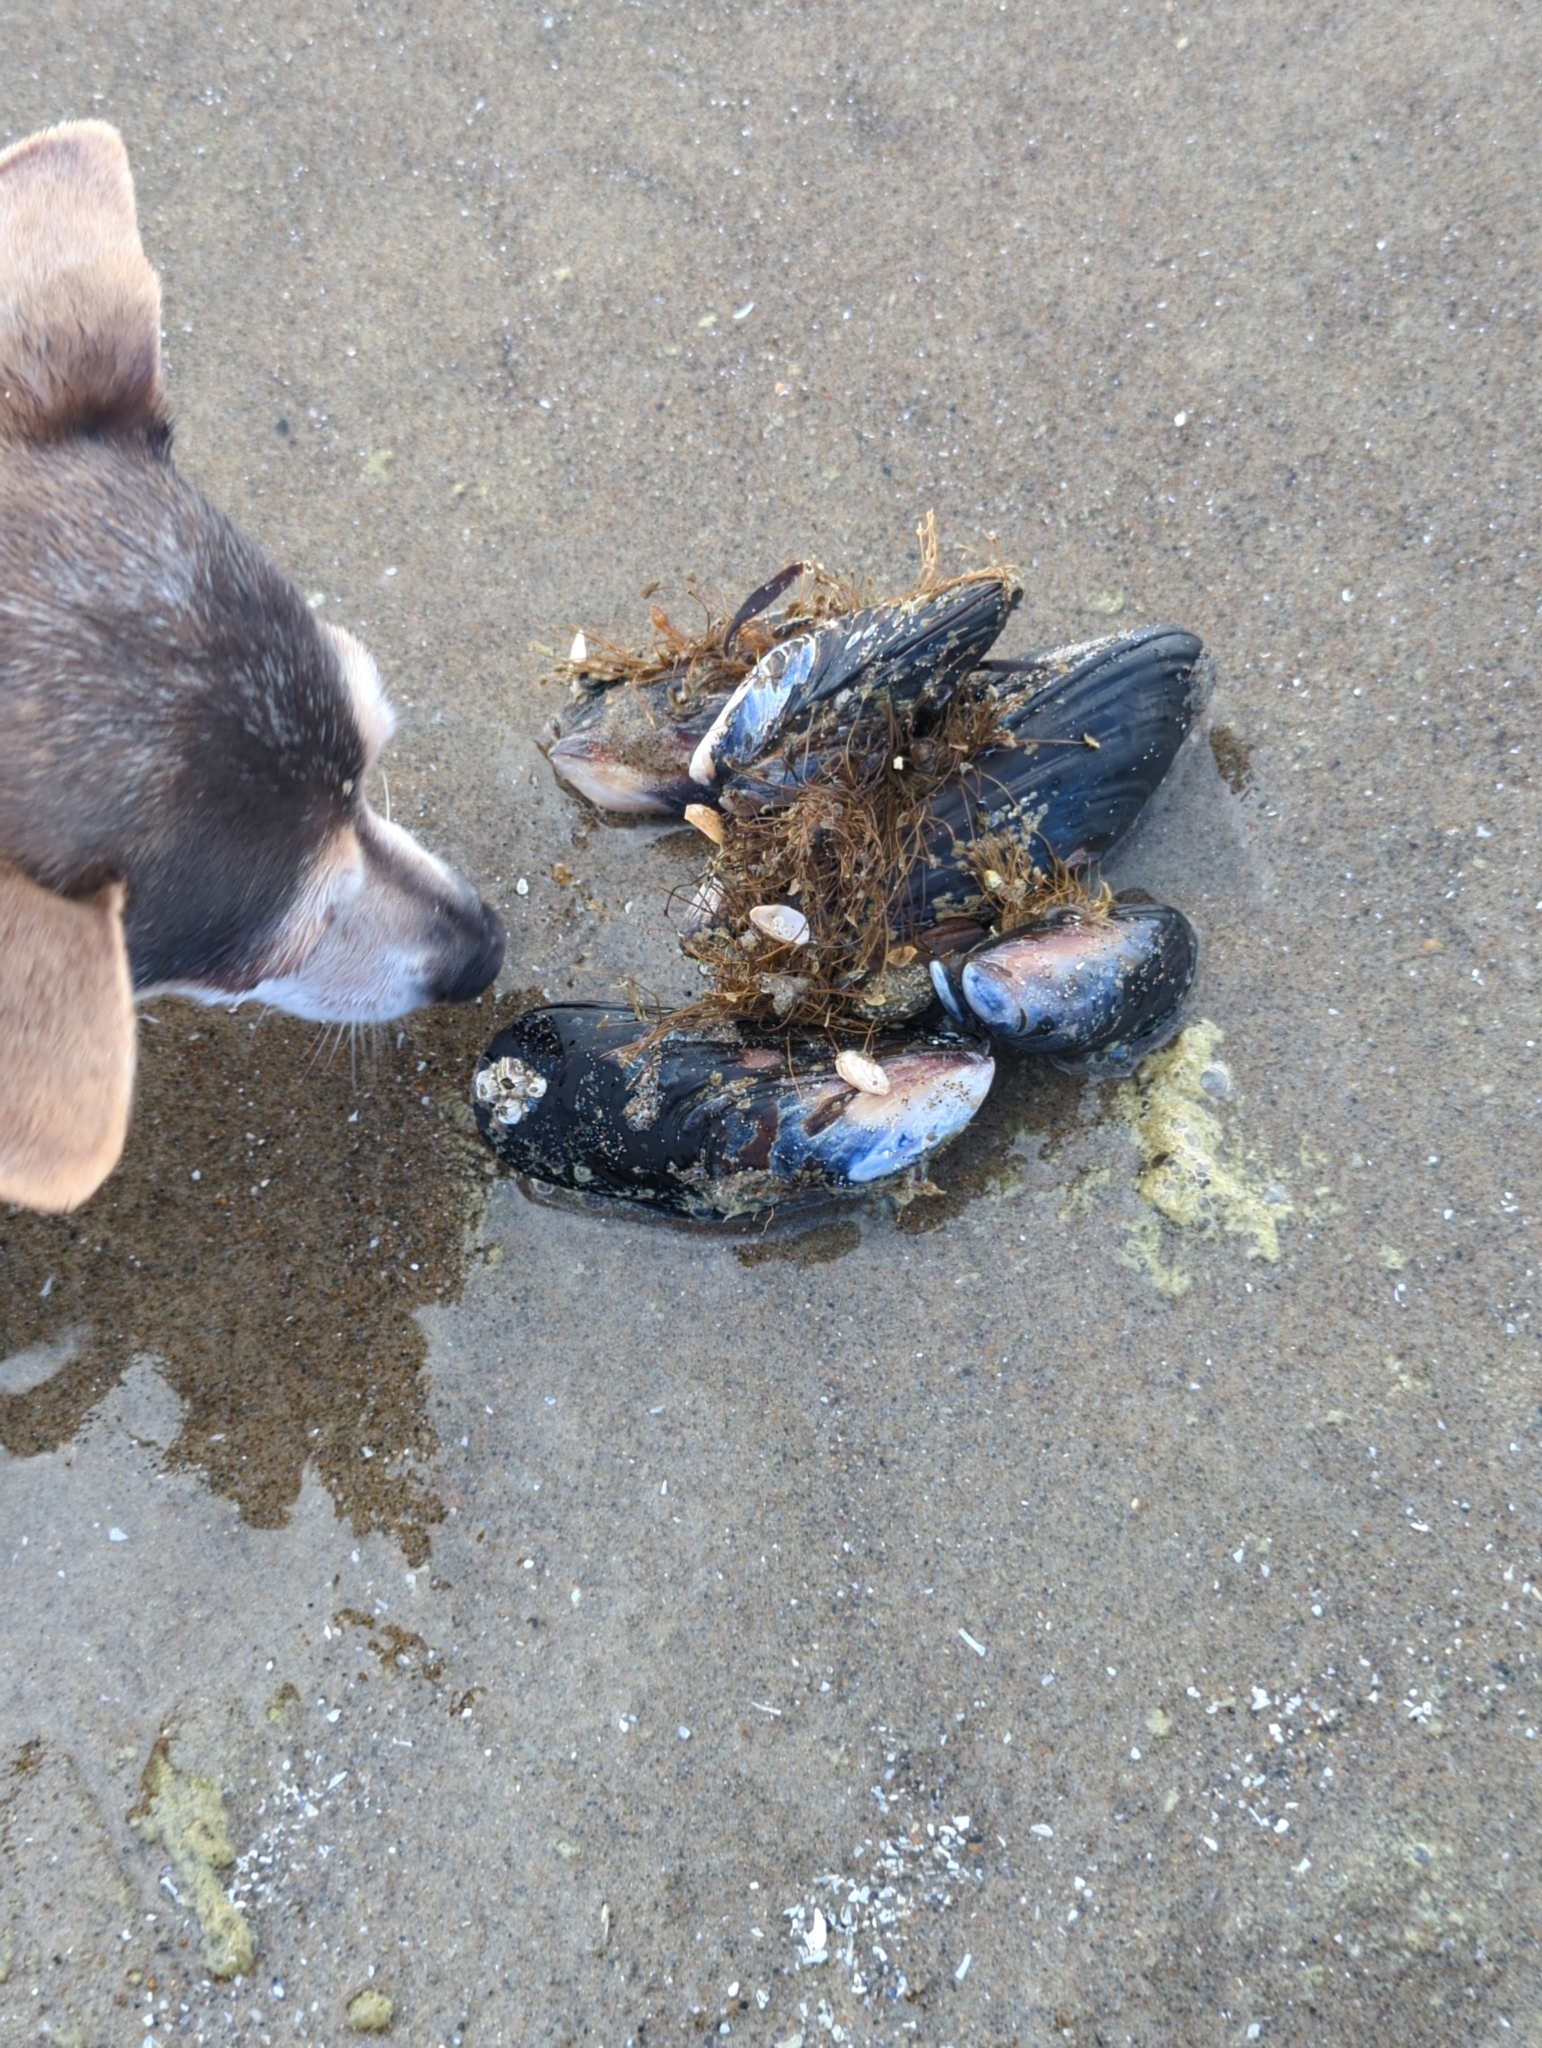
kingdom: Animalia
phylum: Mollusca
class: Bivalvia
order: Mytilida
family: Mytilidae
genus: Mytilus
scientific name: Mytilus californianus
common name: California mussel
